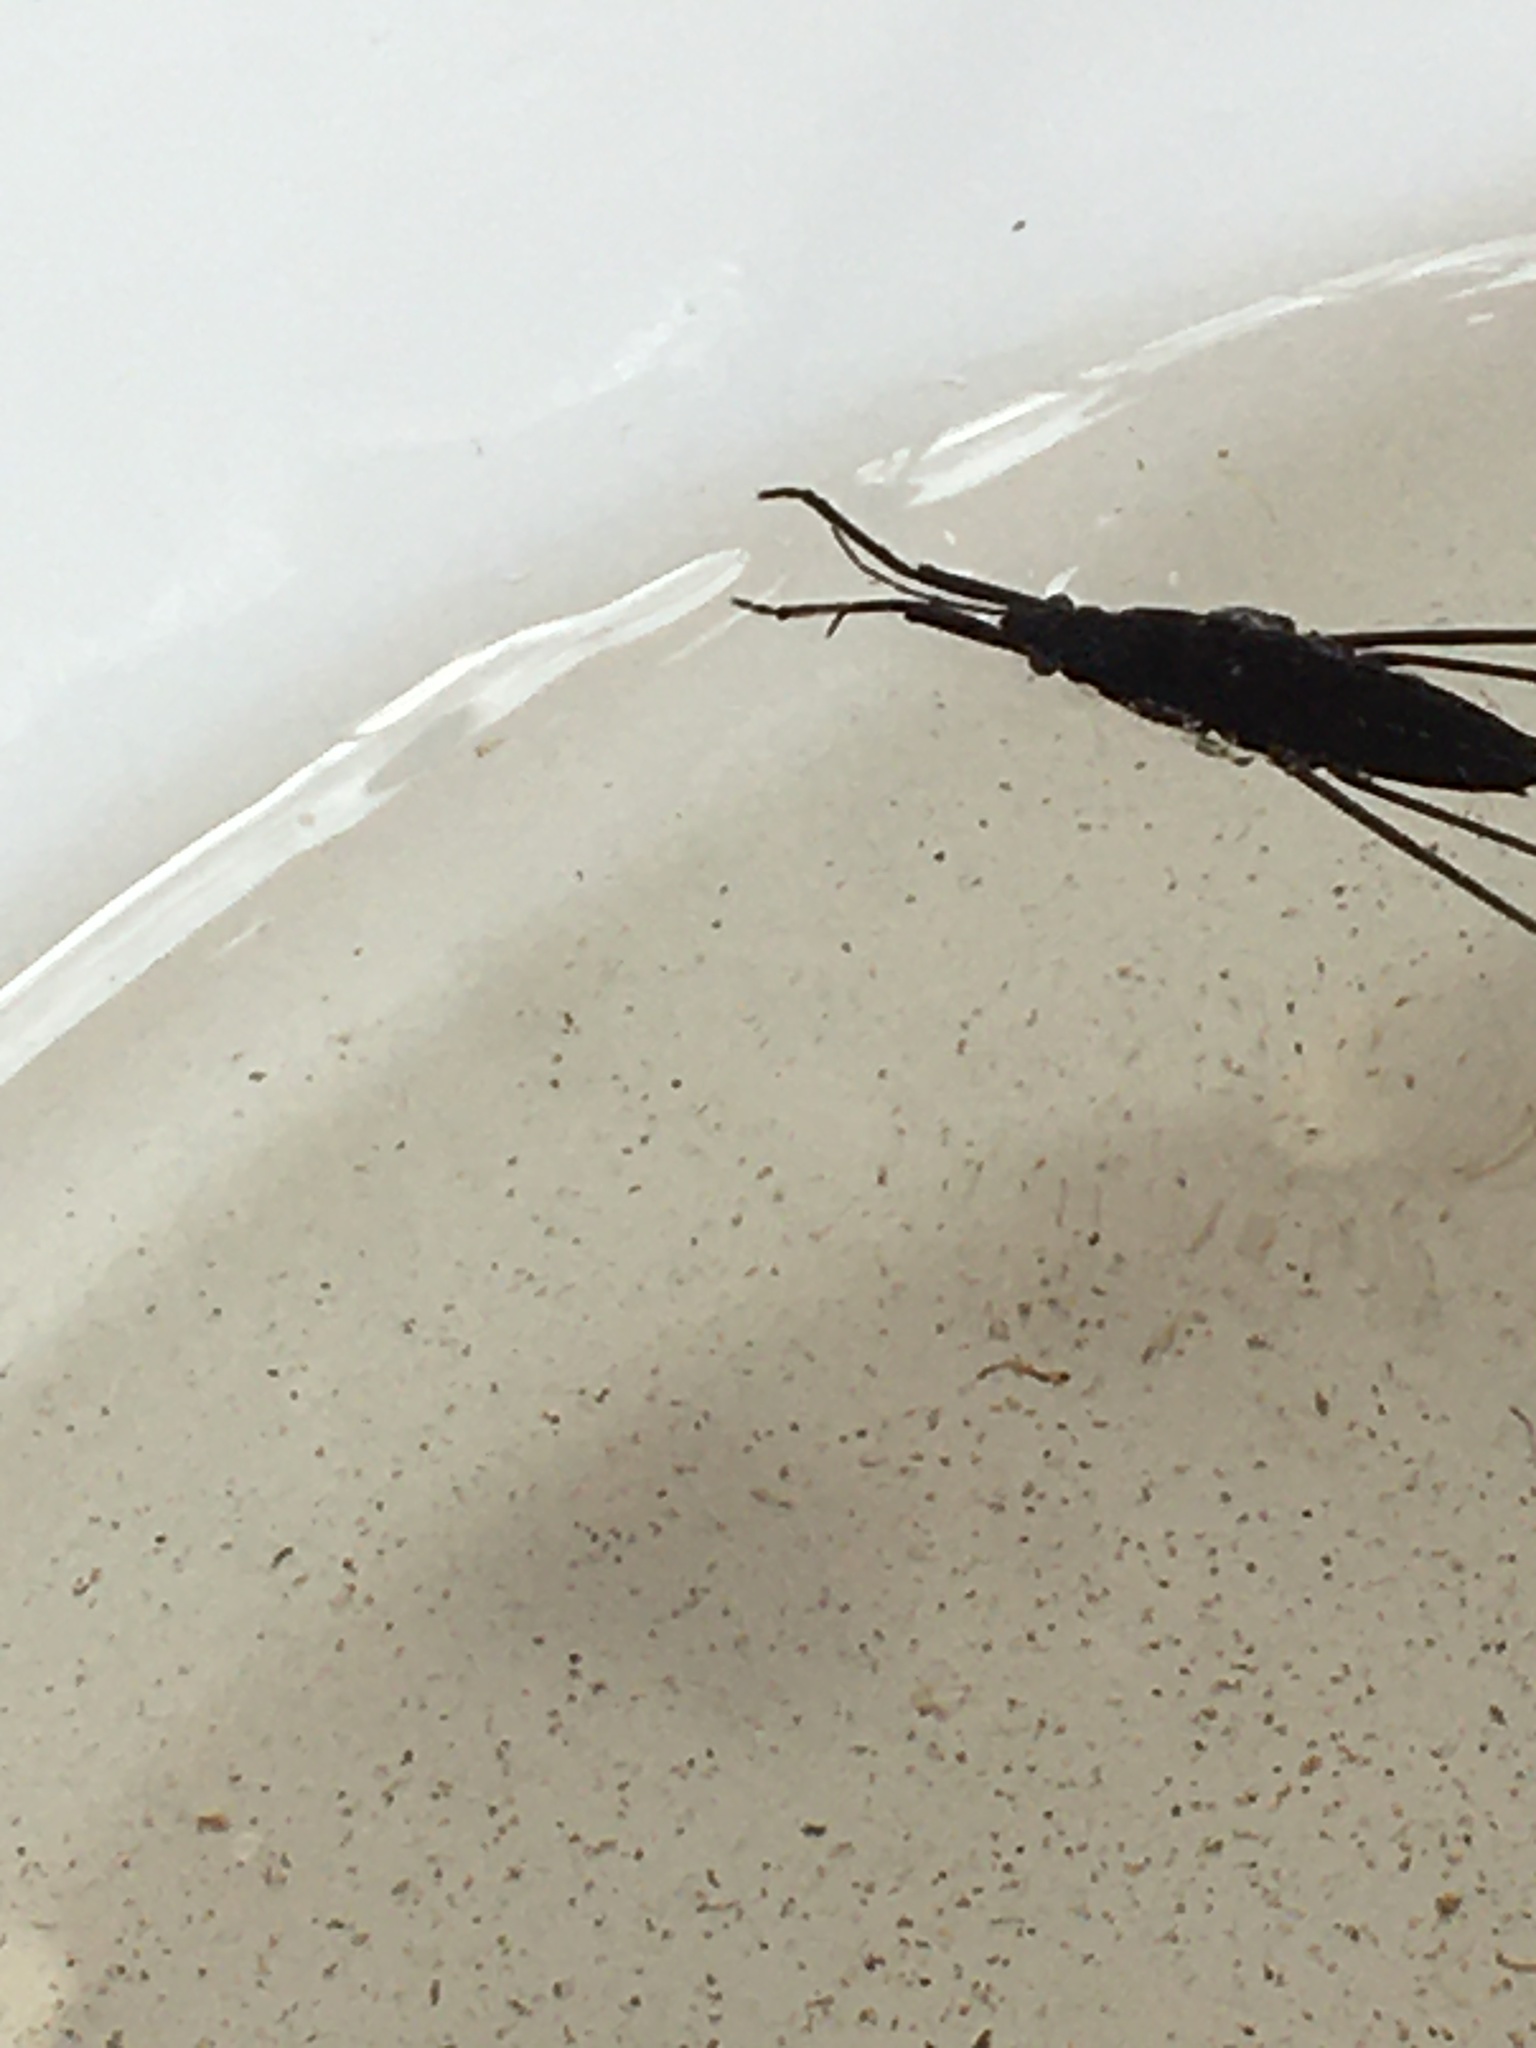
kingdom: Animalia
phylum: Arthropoda
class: Insecta
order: Hemiptera
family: Gerridae
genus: Aquarius
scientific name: Aquarius remigis
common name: Common water strider
